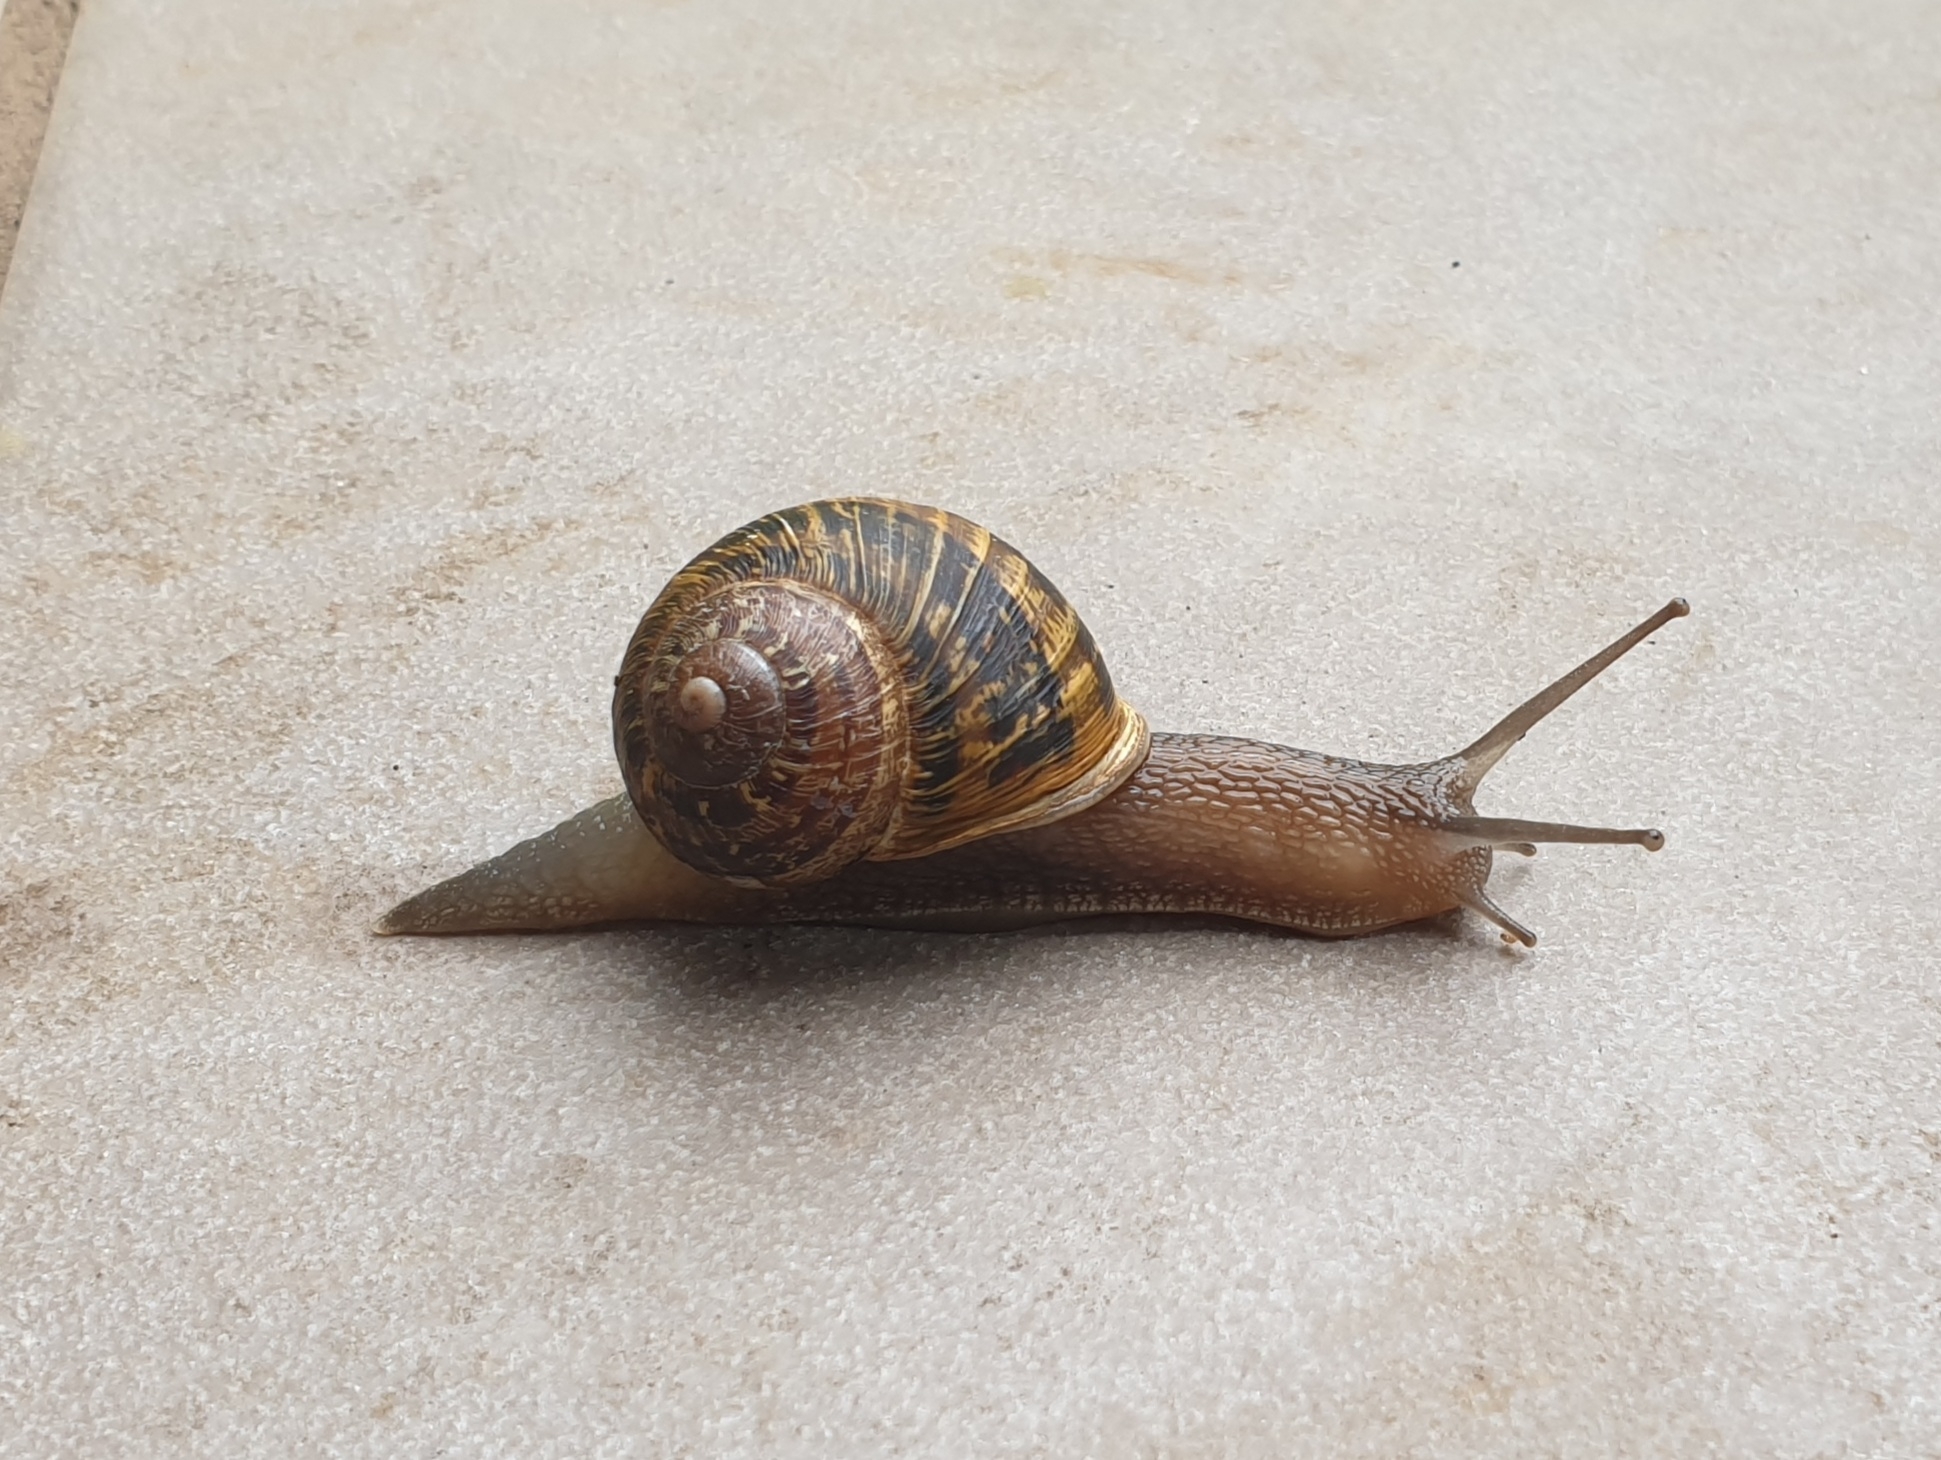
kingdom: Animalia
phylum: Mollusca
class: Gastropoda
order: Stylommatophora
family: Helicidae
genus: Cornu
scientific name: Cornu aspersum
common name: Brown garden snail
